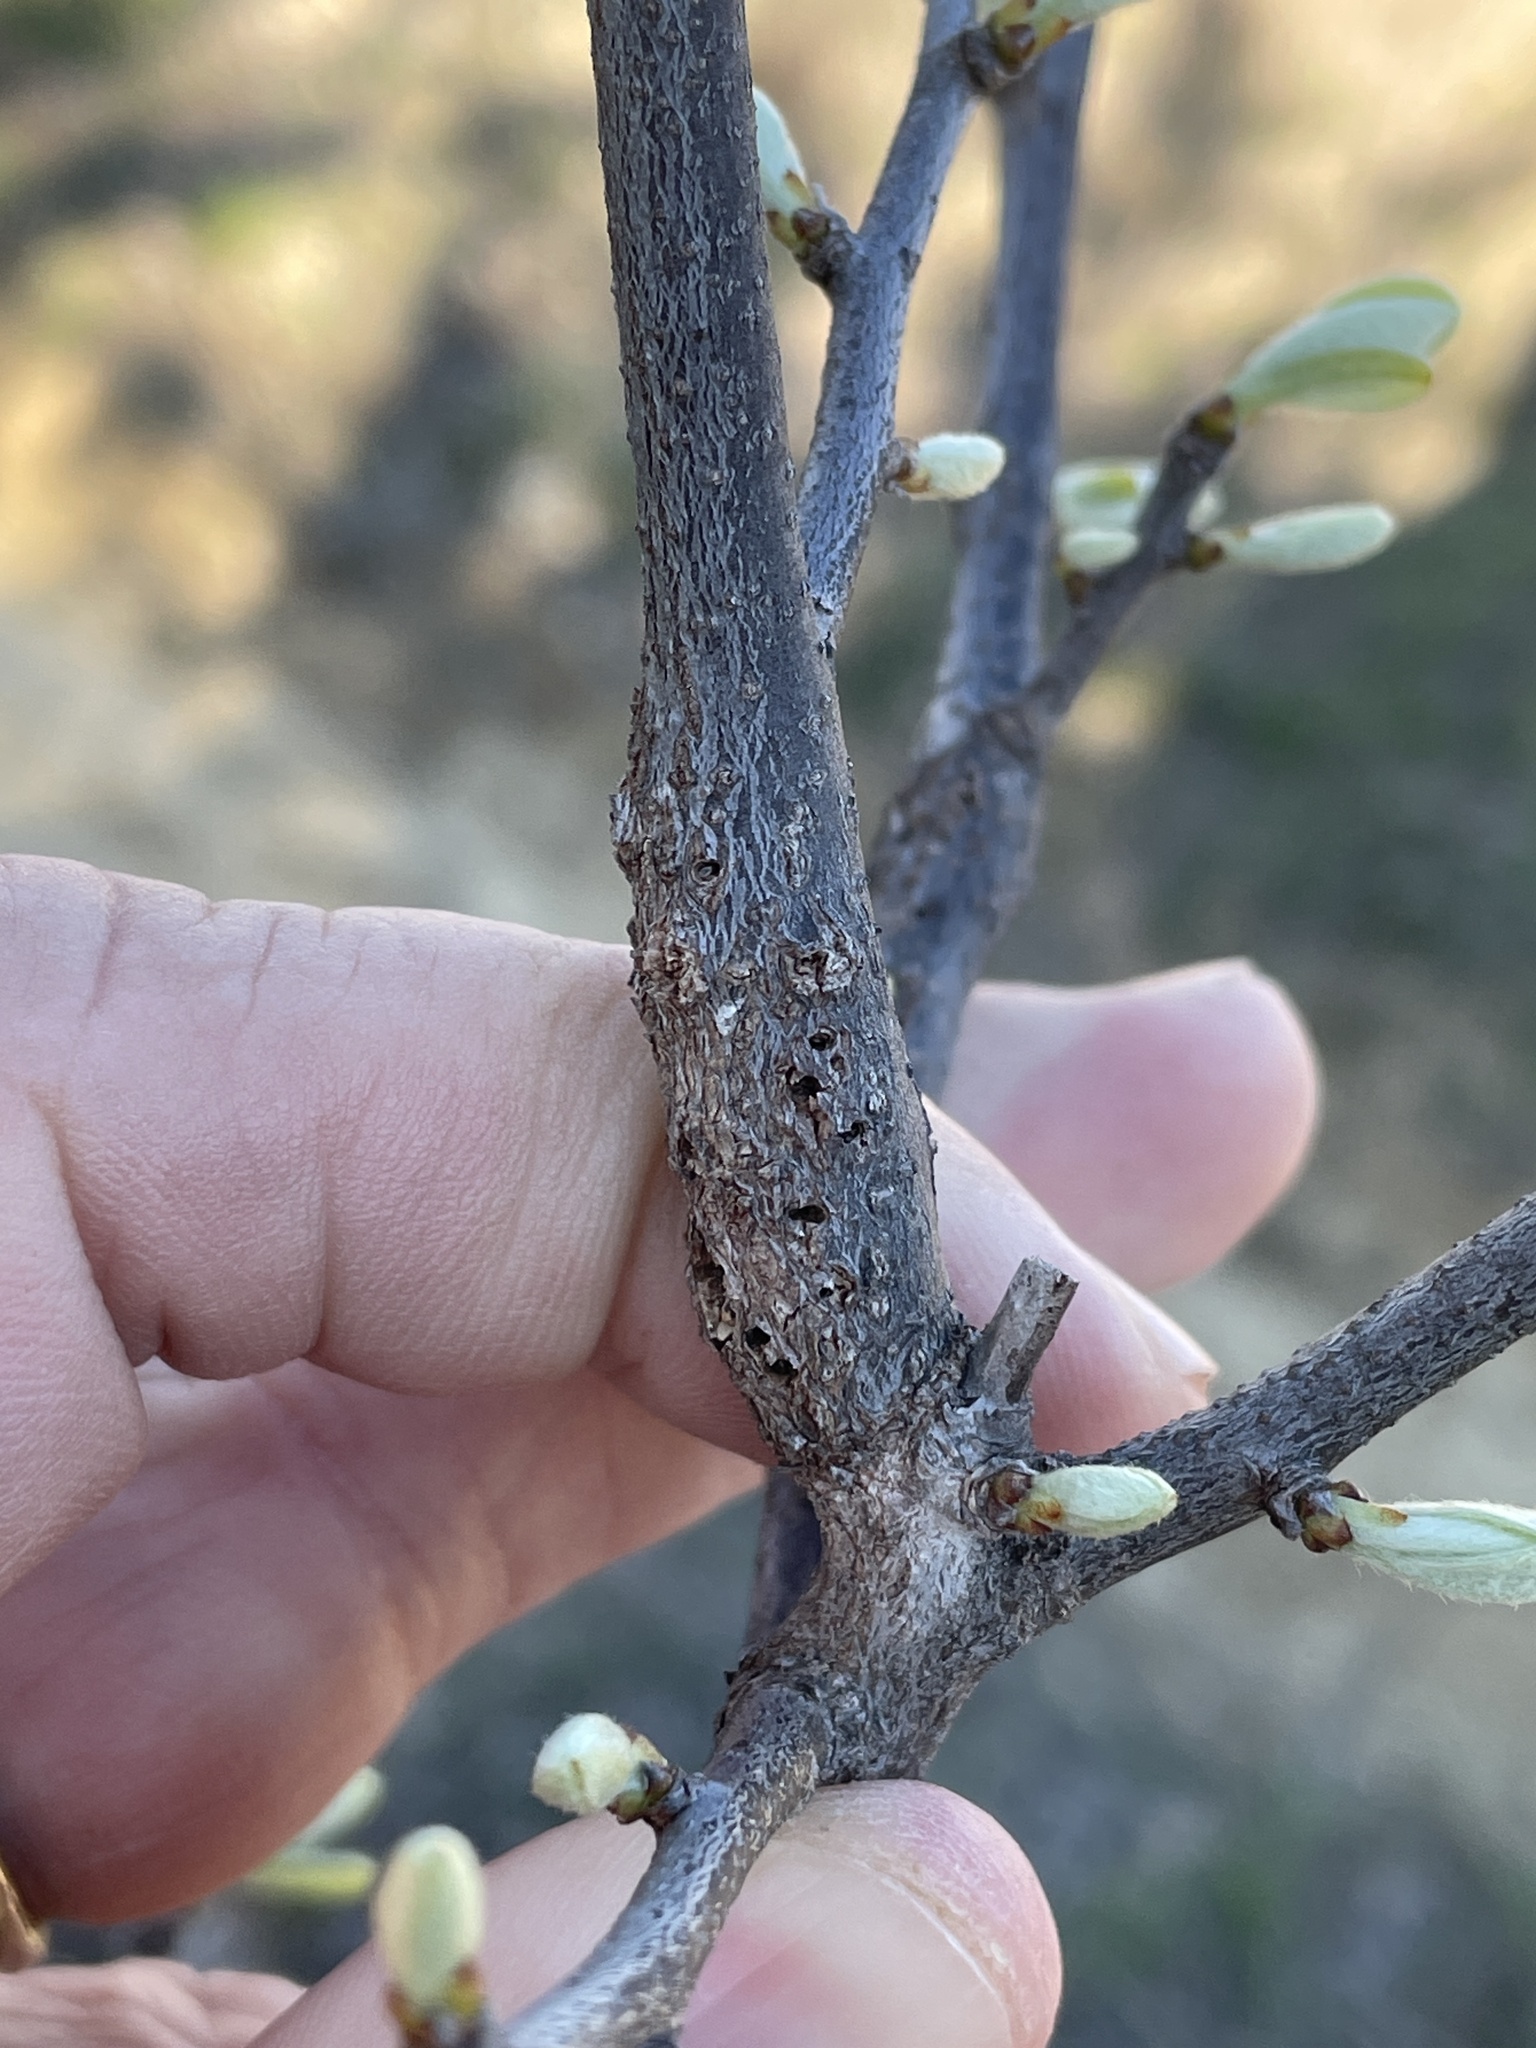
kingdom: Animalia
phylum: Arthropoda
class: Insecta
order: Diptera
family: Cecidomyiidae
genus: Bruggmanniella
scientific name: Bruggmanniella bumeliae
